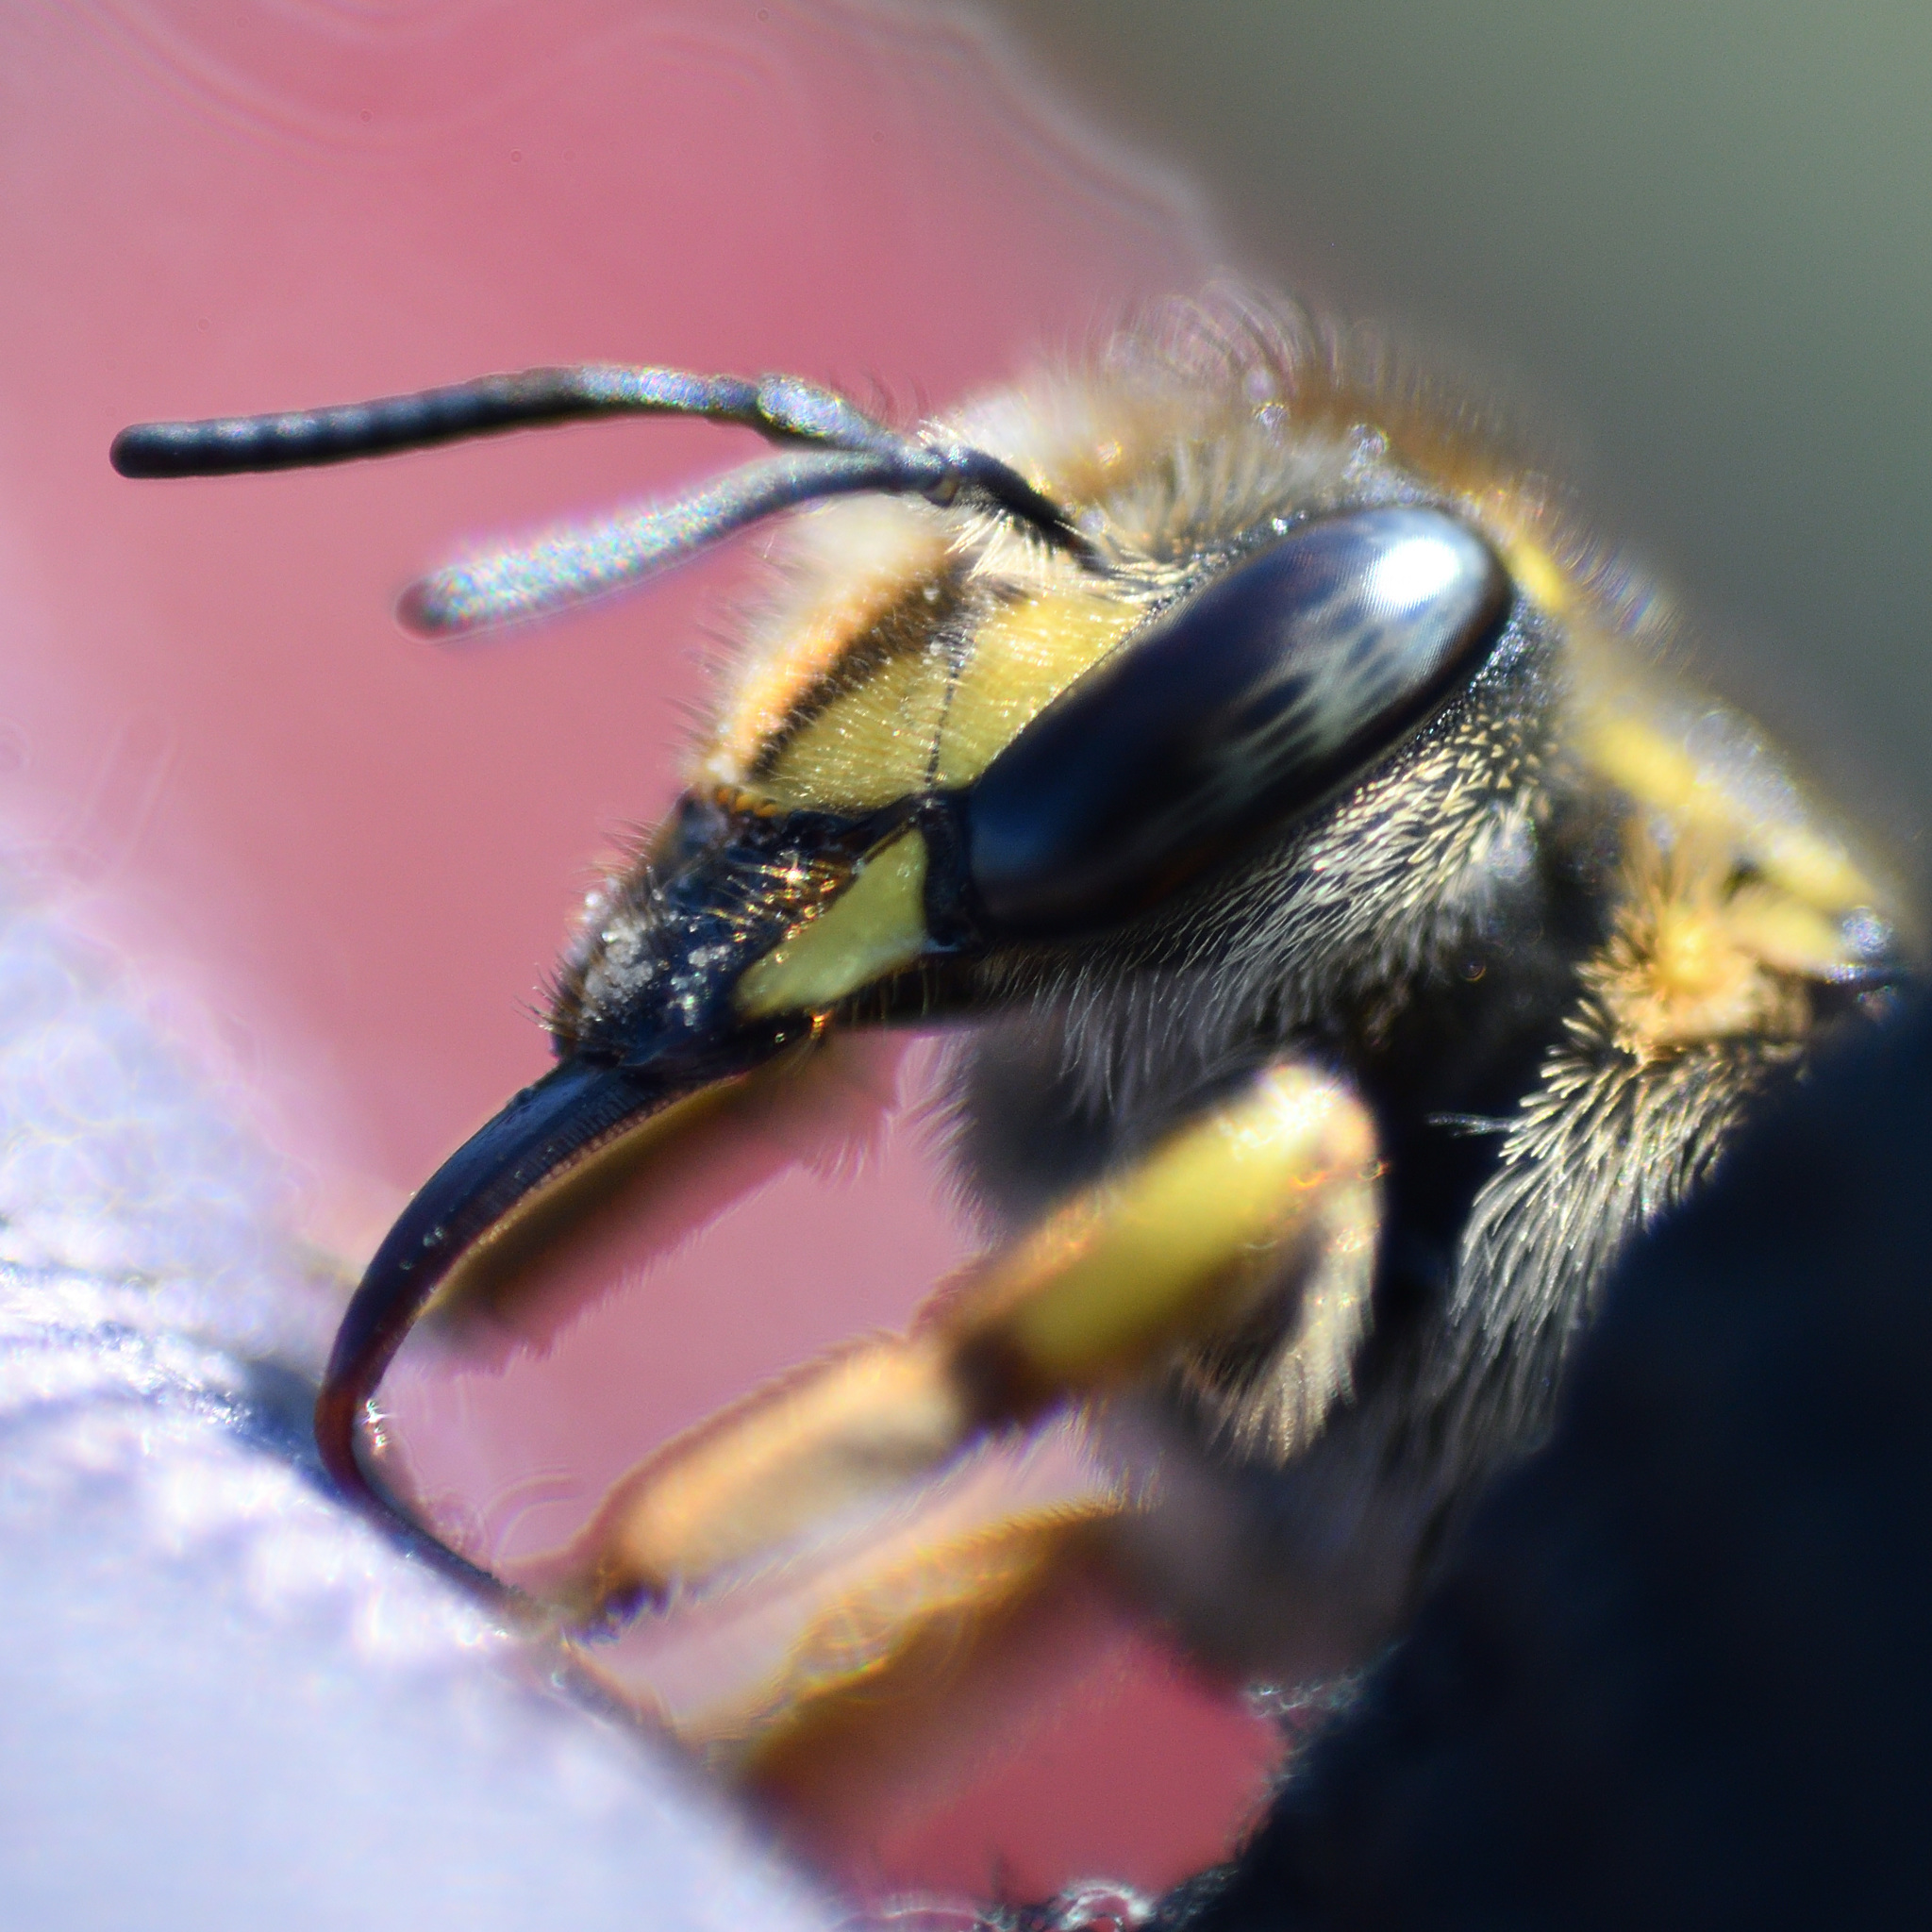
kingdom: Animalia
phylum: Arthropoda
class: Insecta
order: Hymenoptera
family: Megachilidae
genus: Anthidium
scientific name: Anthidium manicatum
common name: Wool carder bee
